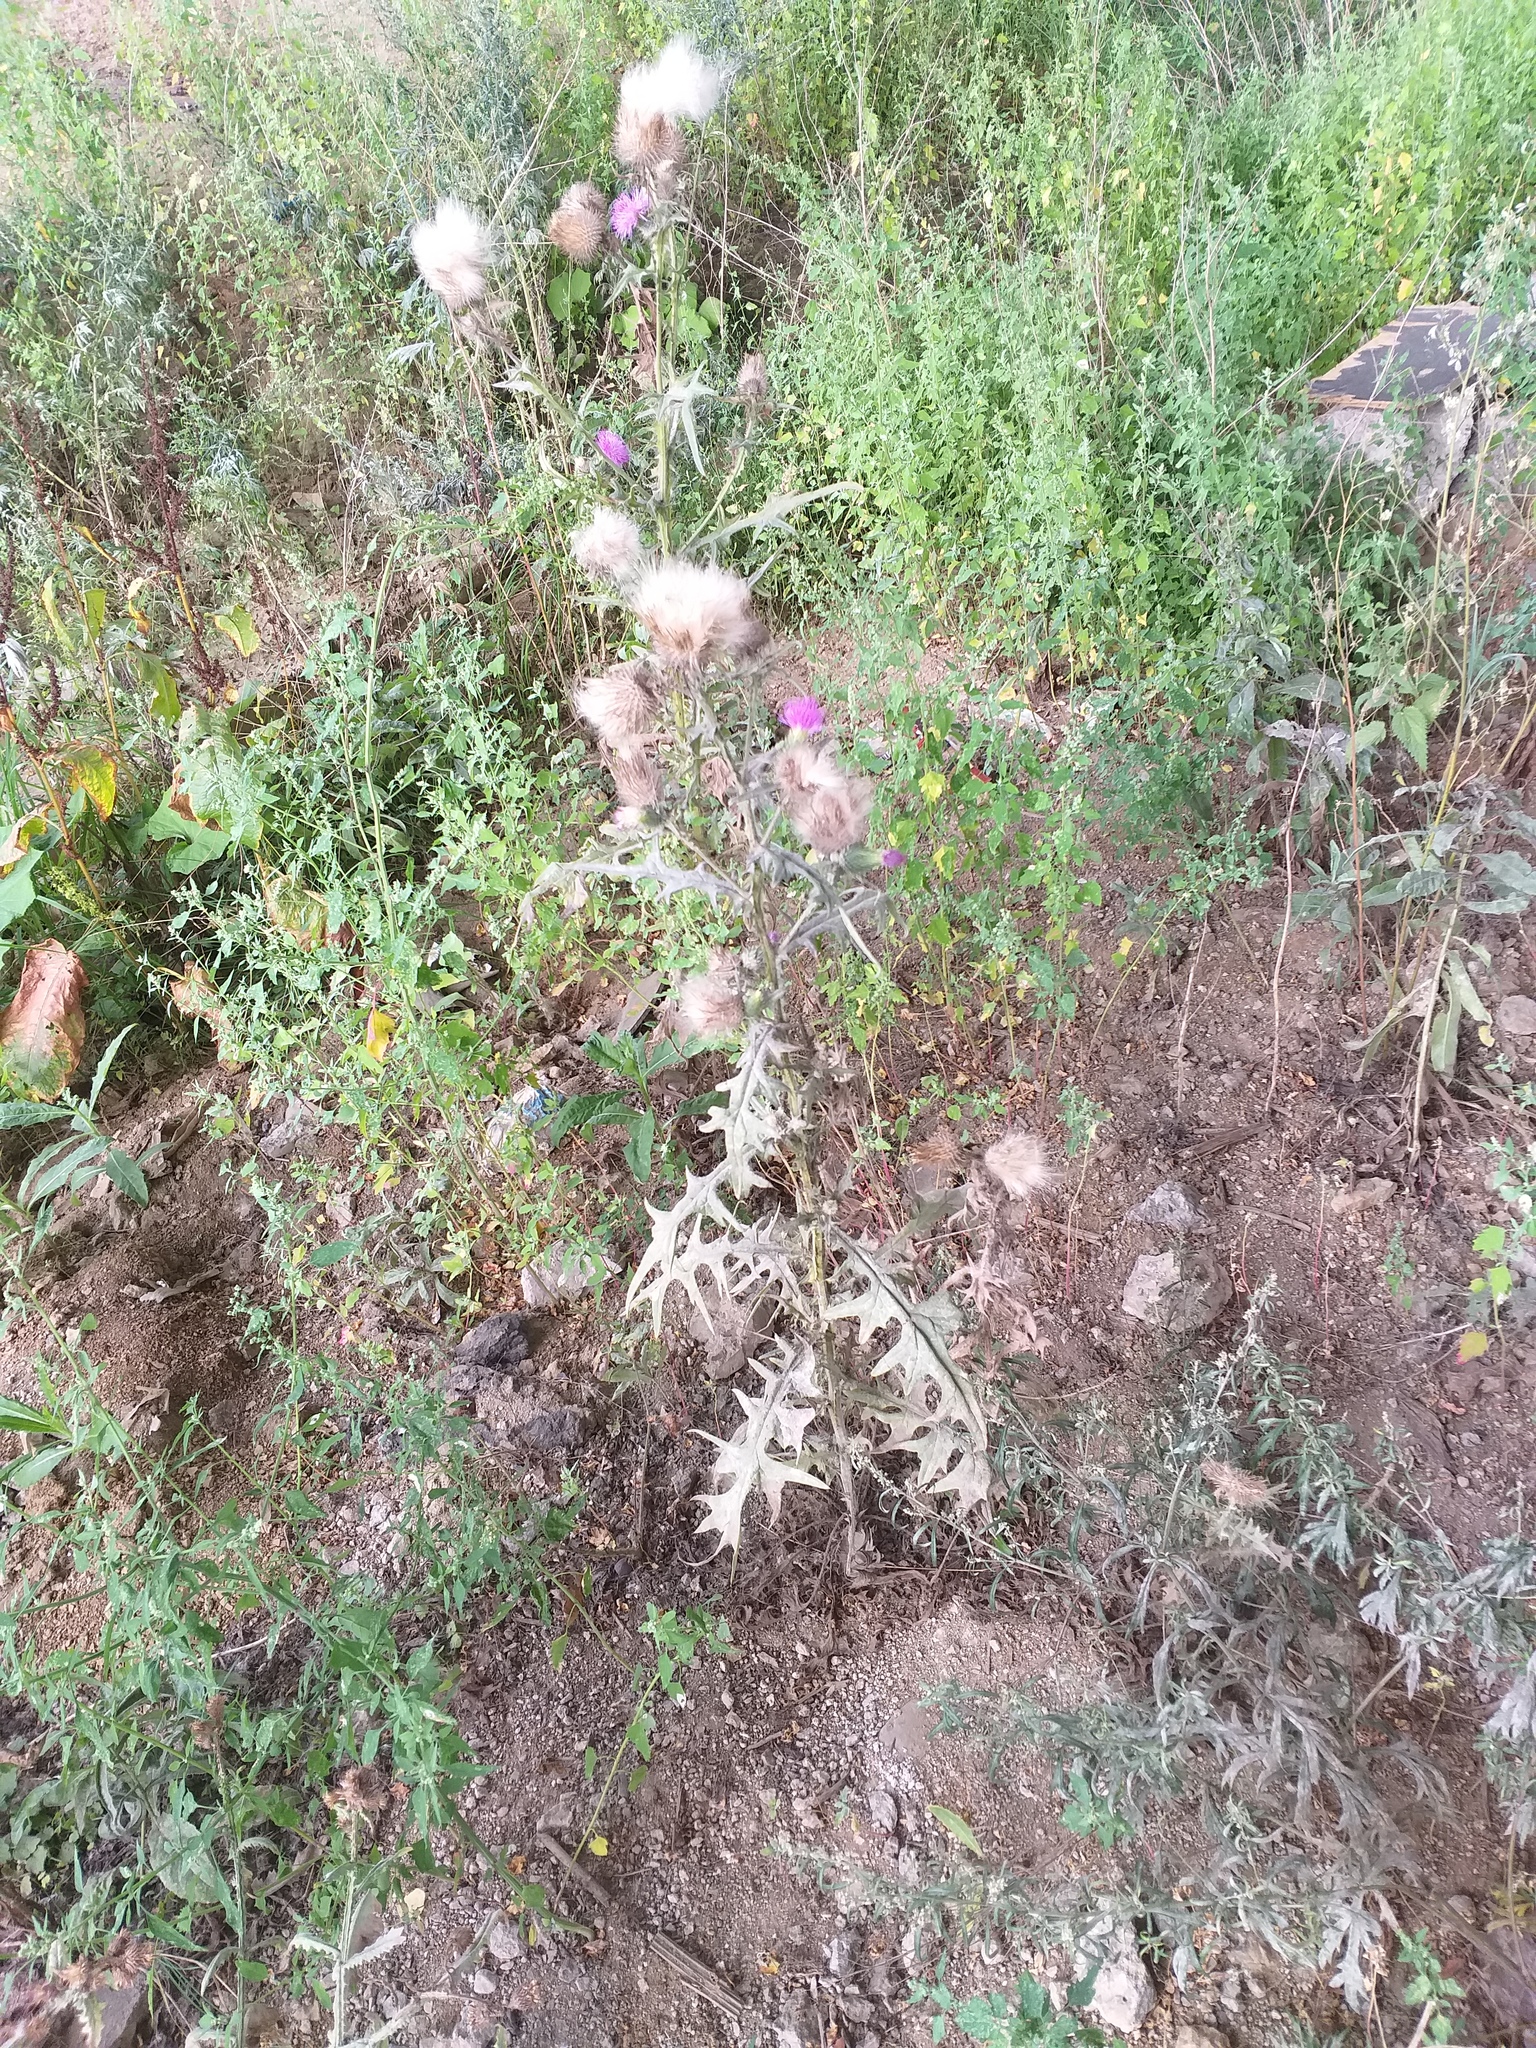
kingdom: Plantae
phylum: Tracheophyta
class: Magnoliopsida
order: Asterales
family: Asteraceae
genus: Cirsium
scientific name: Cirsium vulgare
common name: Bull thistle
